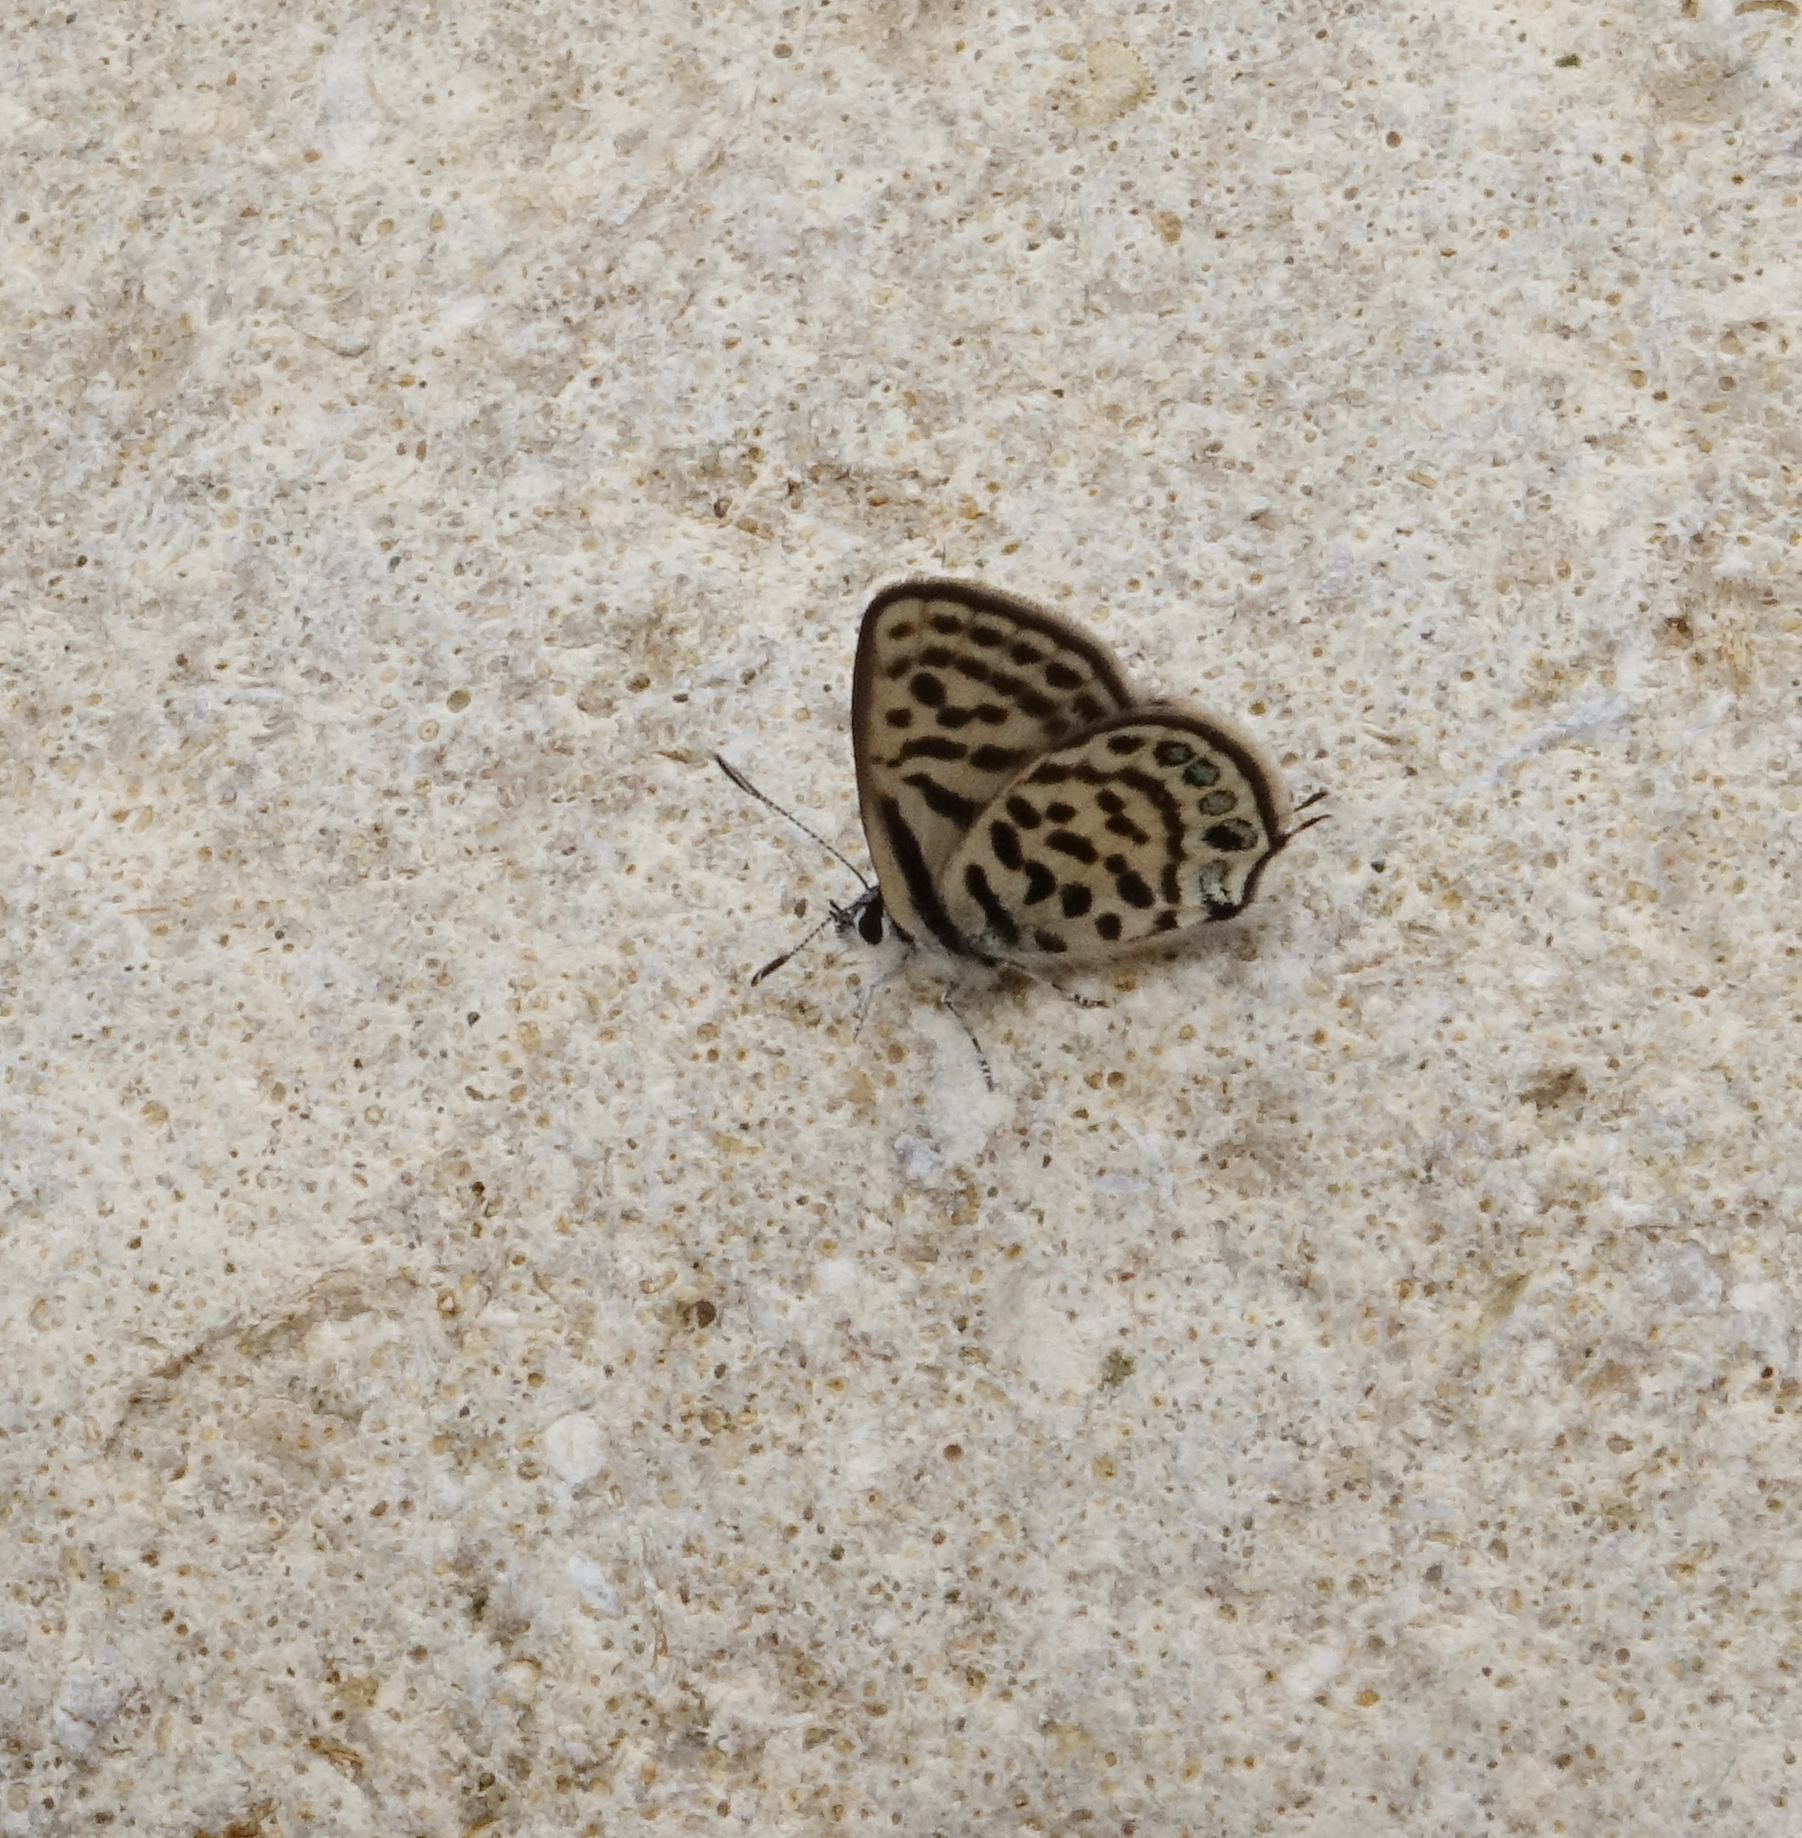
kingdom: Animalia
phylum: Arthropoda
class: Insecta
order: Lepidoptera
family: Lycaenidae
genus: Tarucus
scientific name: Tarucus balkanica
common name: Little tiger blue
